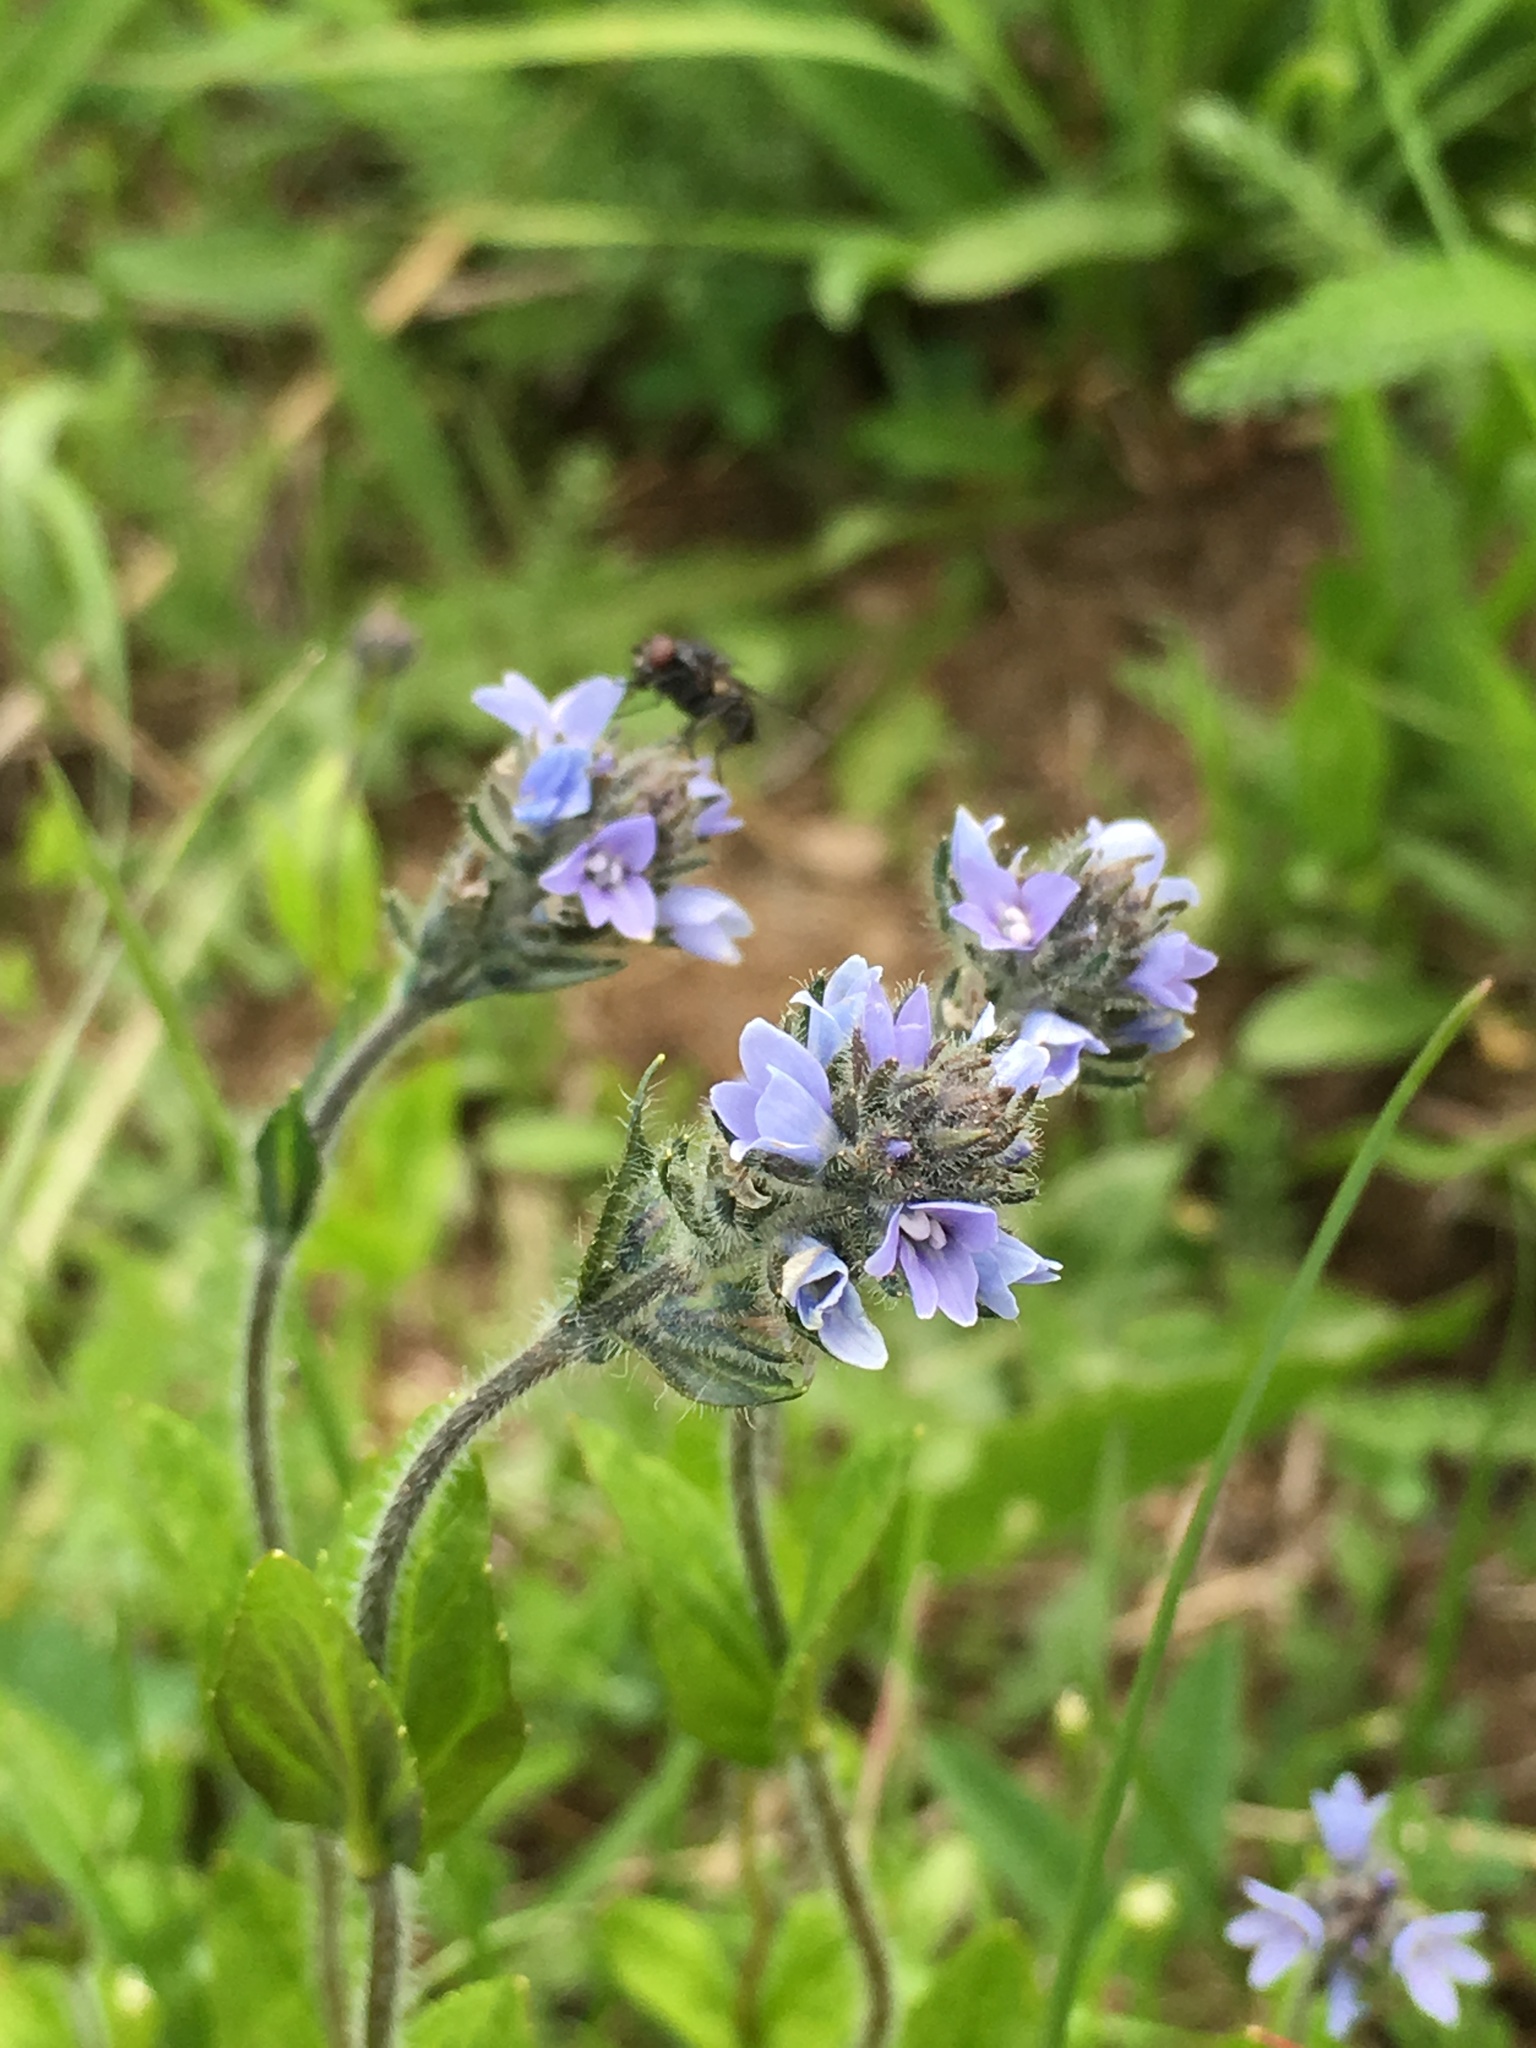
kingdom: Plantae
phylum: Tracheophyta
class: Magnoliopsida
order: Lamiales
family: Plantaginaceae
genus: Veronica
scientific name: Veronica wormskjoldii
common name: American alpine speedwell
